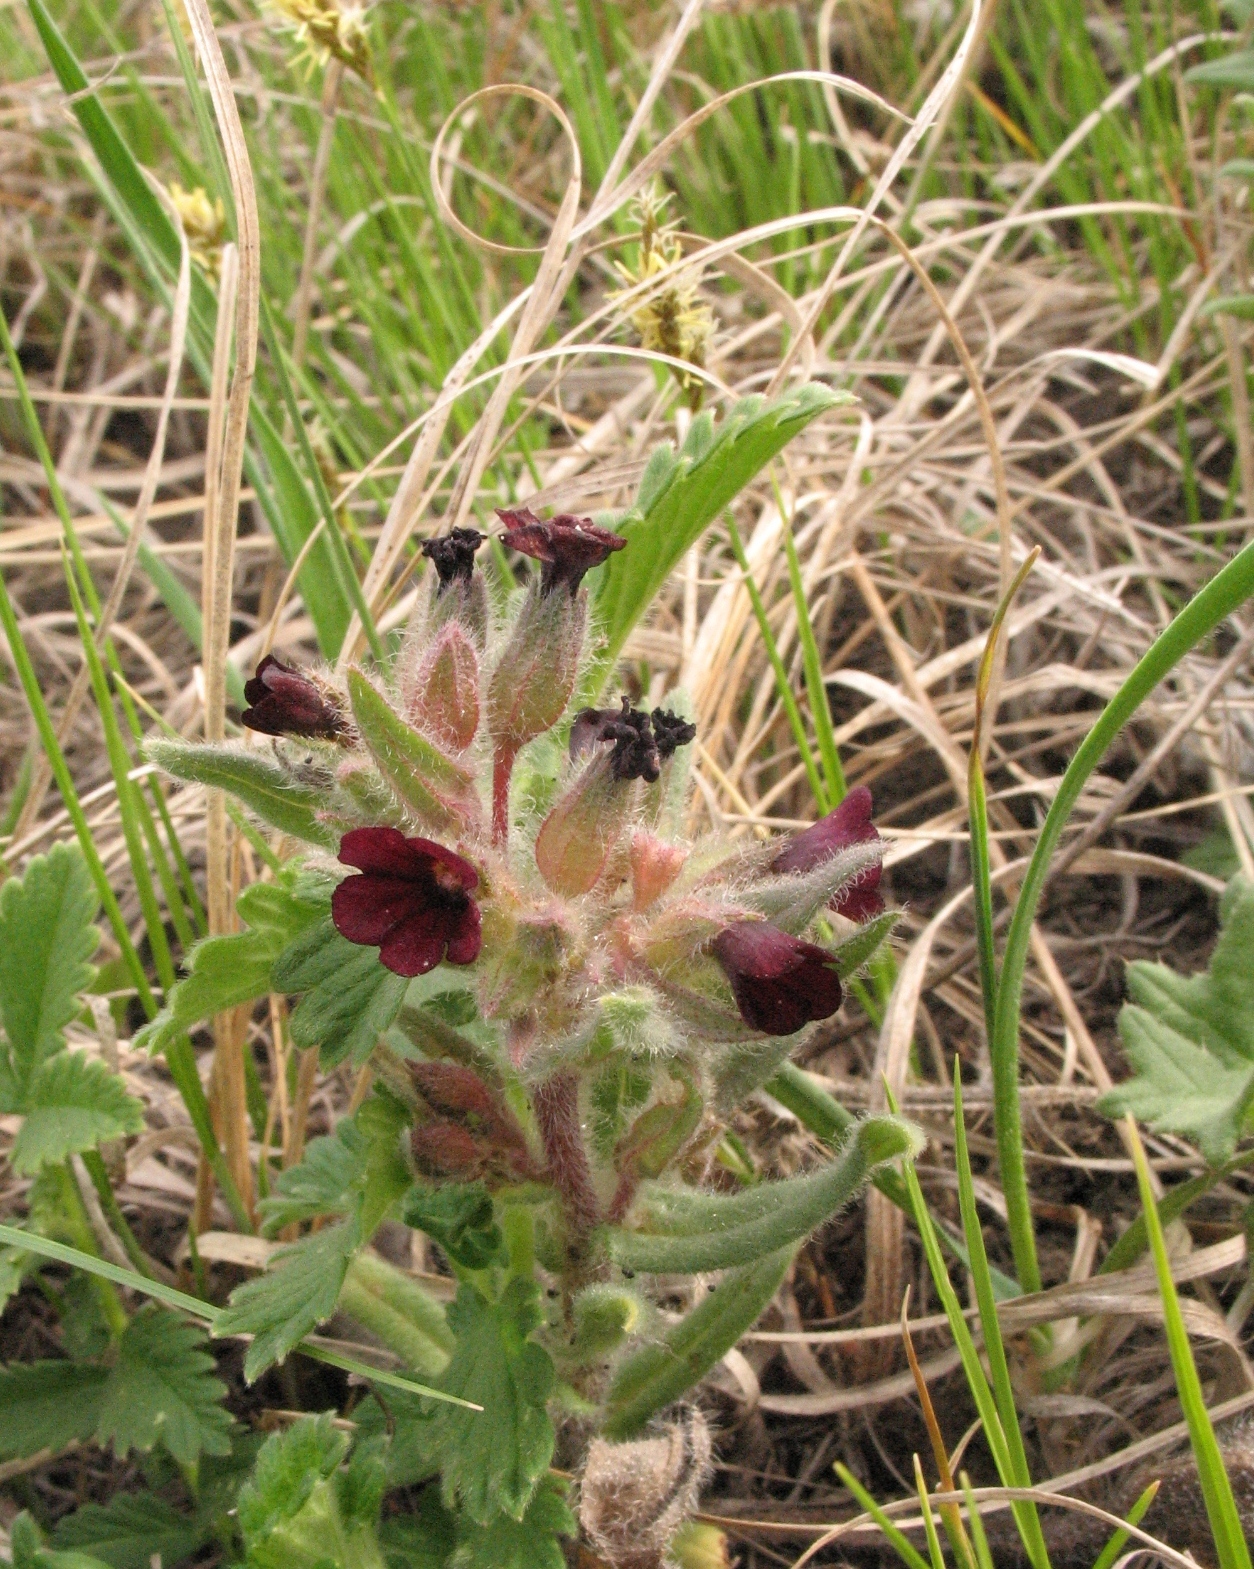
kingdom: Plantae
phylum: Tracheophyta
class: Magnoliopsida
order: Boraginales
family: Boraginaceae
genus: Nonea
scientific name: Nonea pulla
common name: Brown nonea
